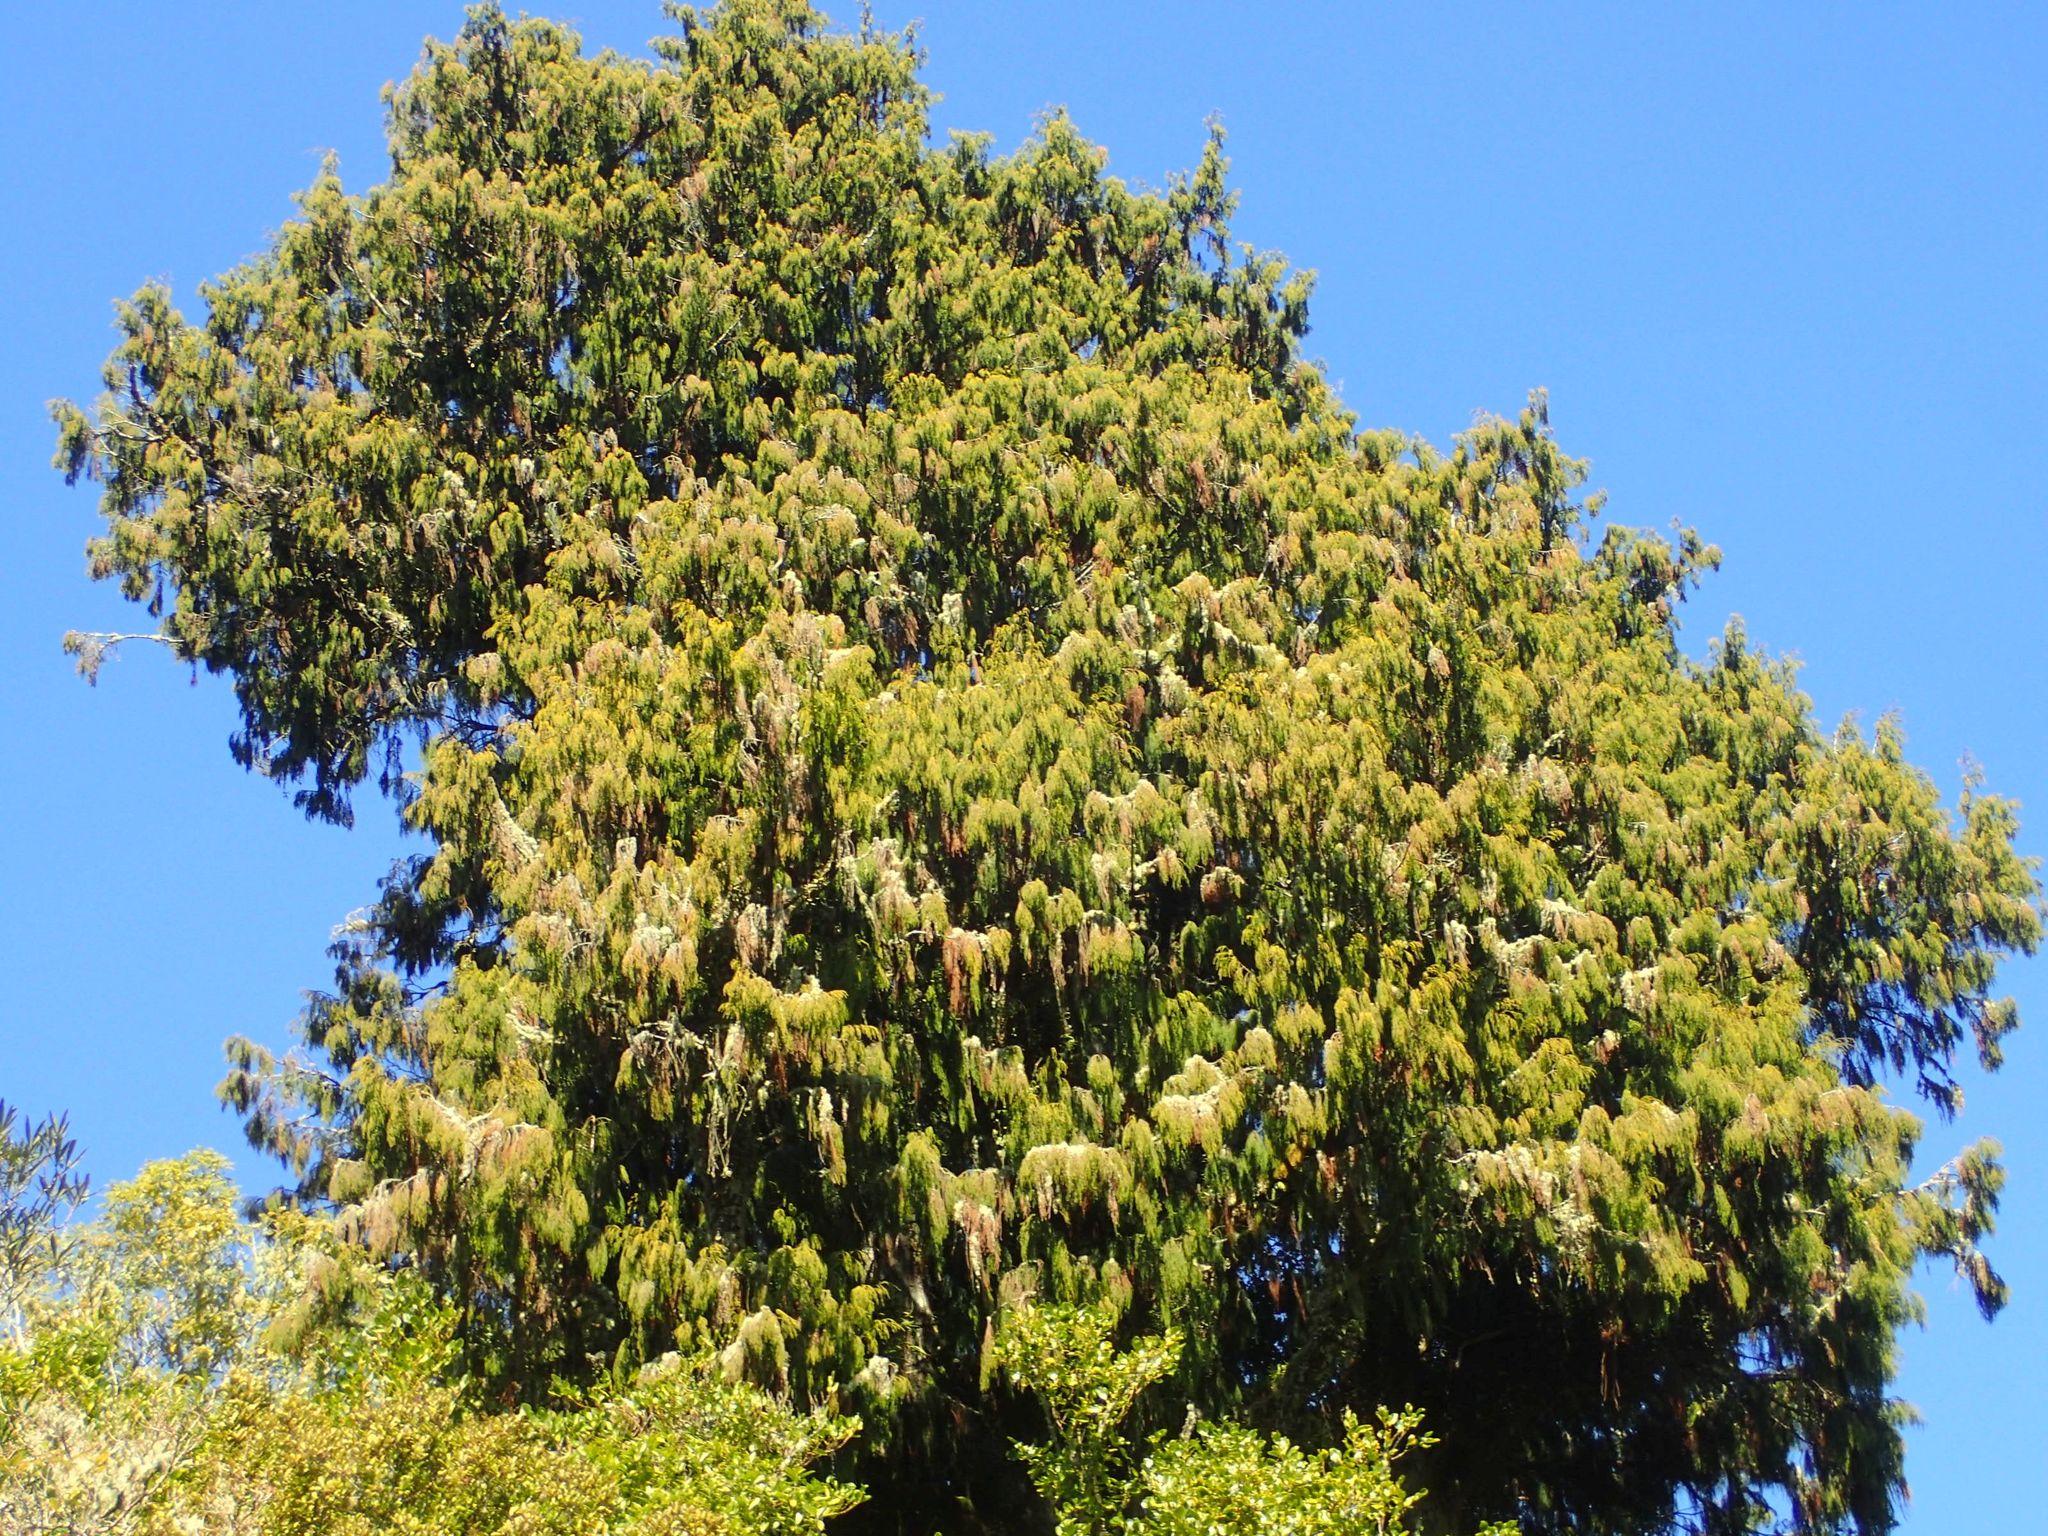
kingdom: Plantae
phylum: Tracheophyta
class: Pinopsida
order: Pinales
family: Podocarpaceae
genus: Dacrydium
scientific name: Dacrydium cupressinum
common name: Red pine
